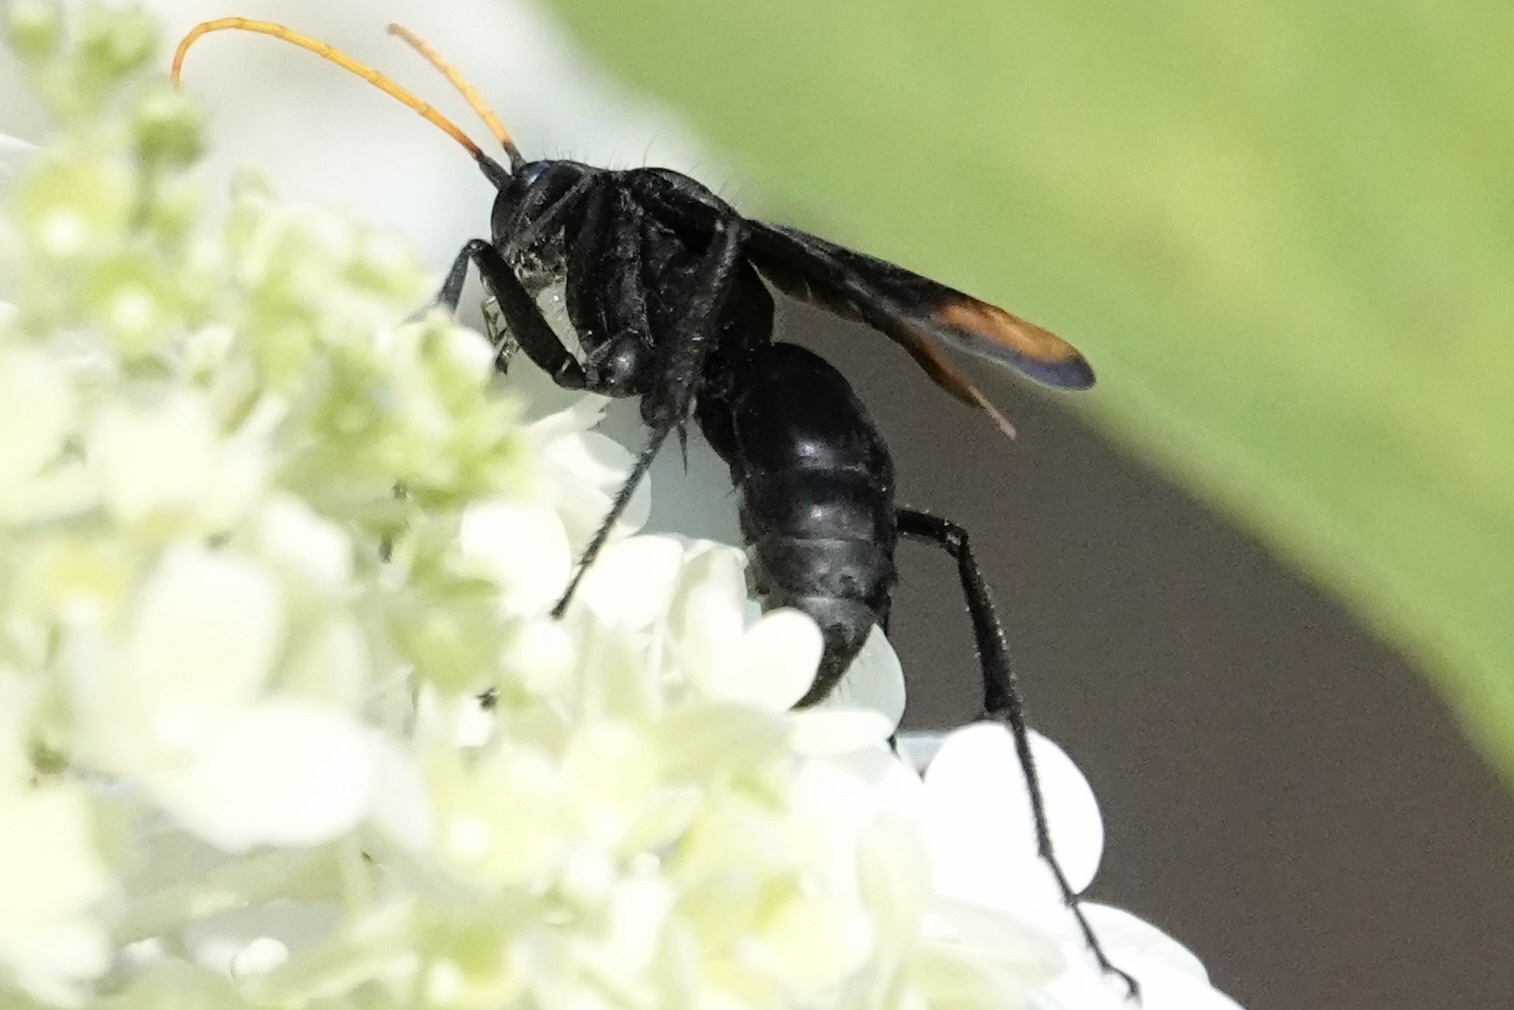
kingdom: Animalia
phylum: Arthropoda
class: Insecta
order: Hymenoptera
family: Pompilidae
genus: Entypus
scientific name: Entypus unifasciatus
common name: Eastern tawny-horned spider wasp
